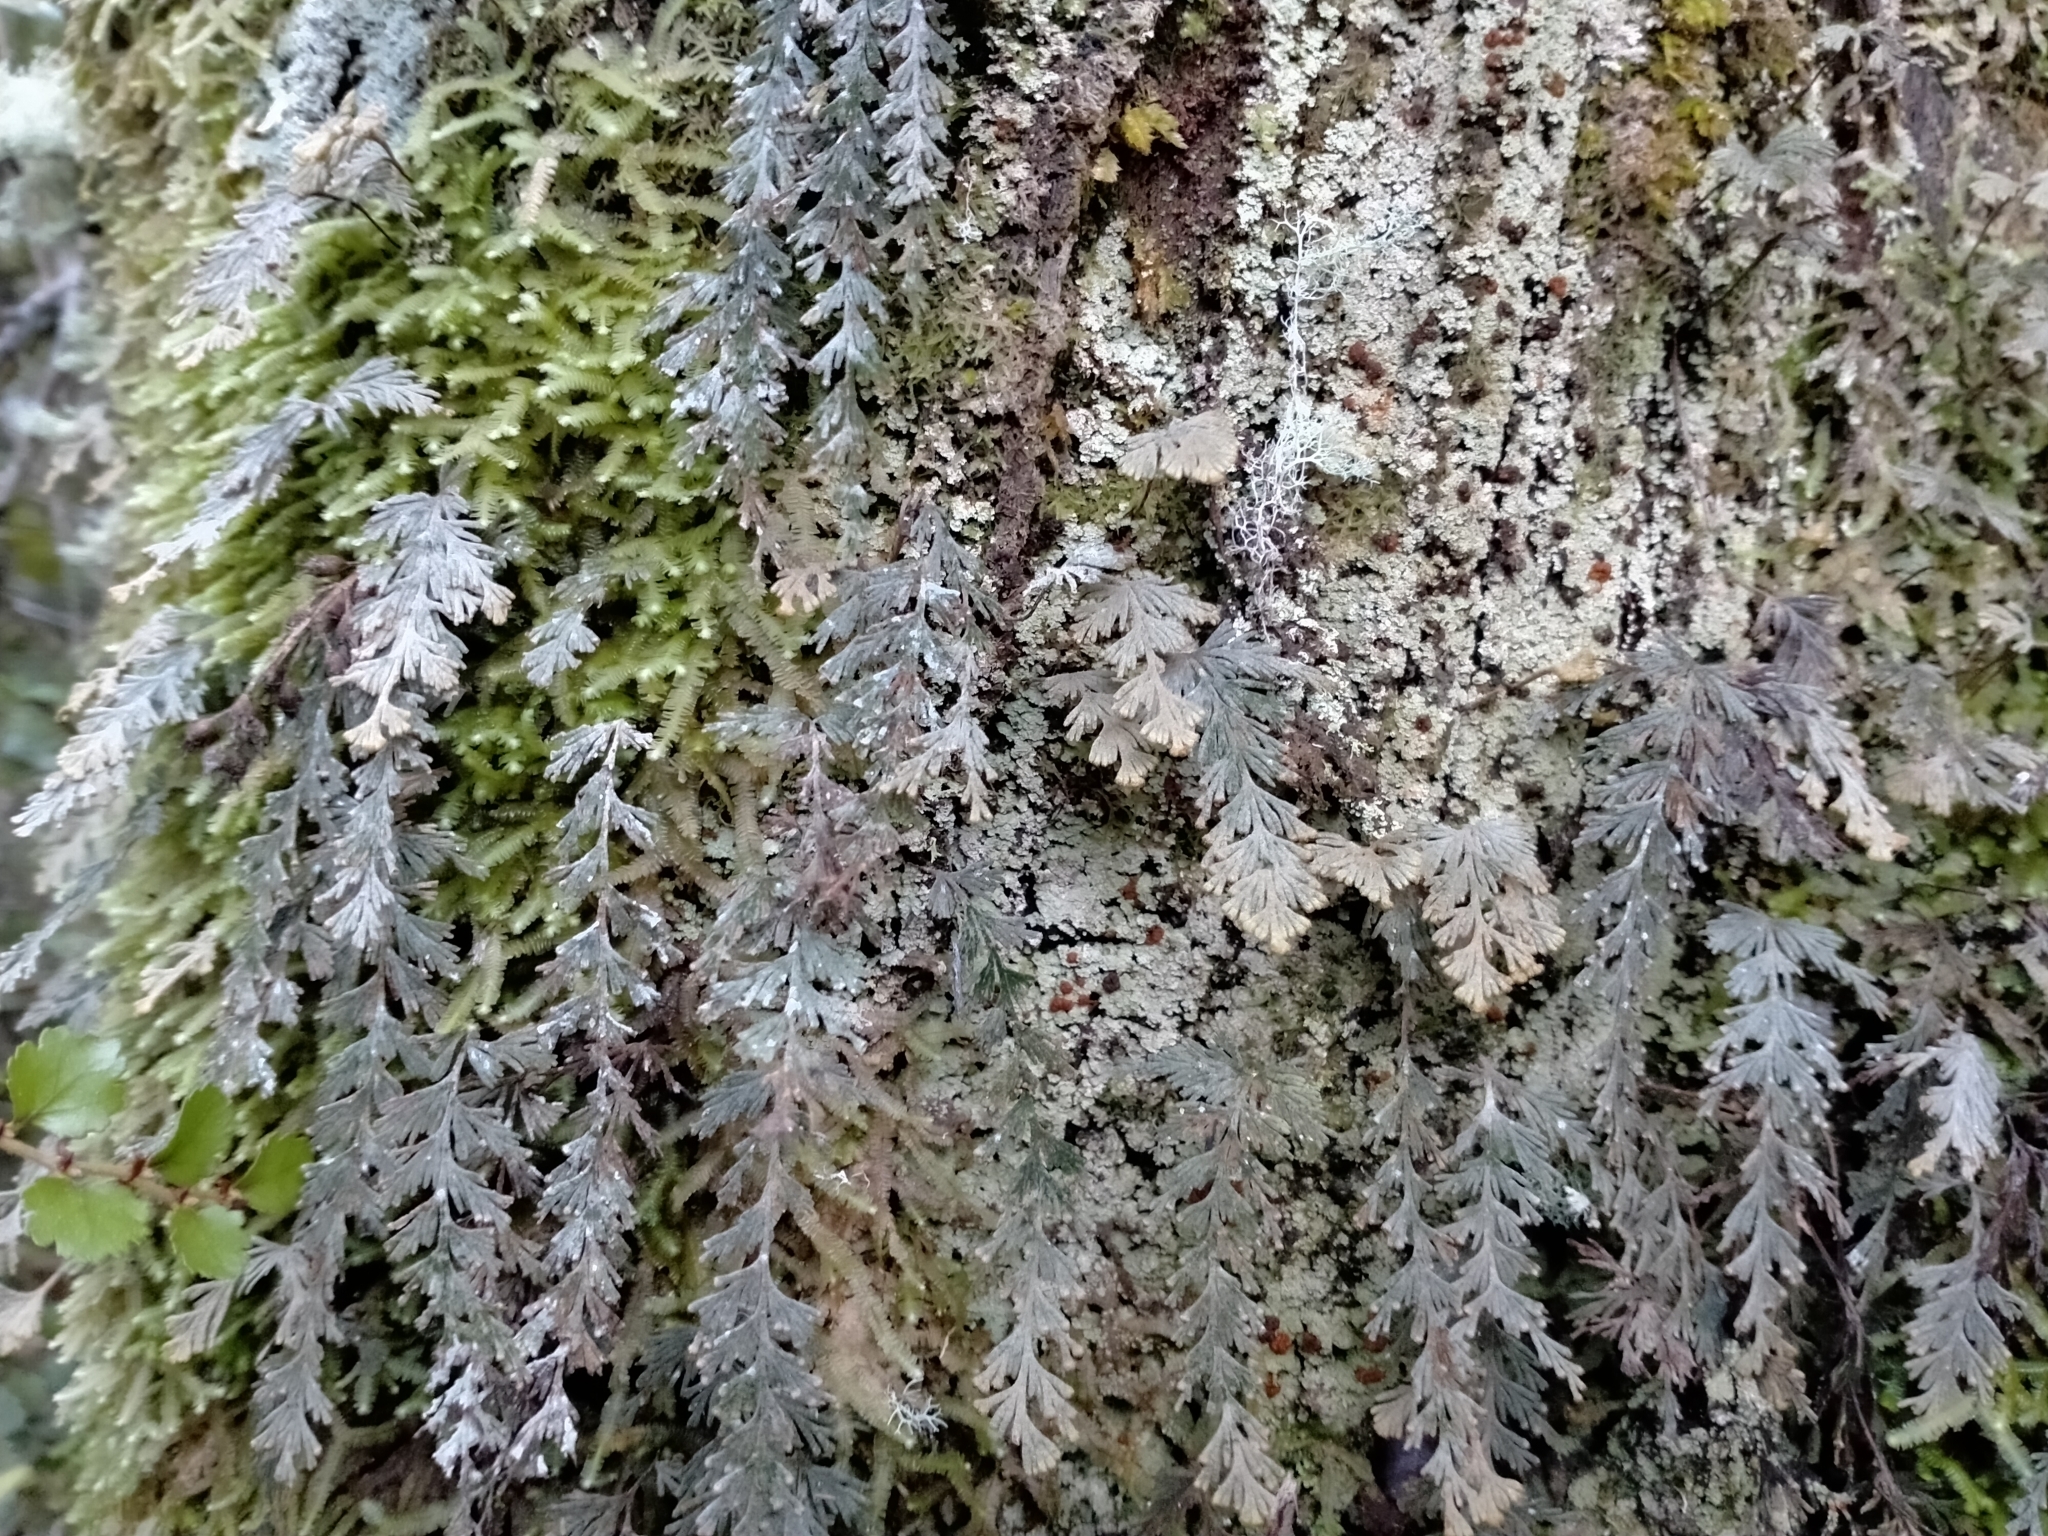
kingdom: Plantae
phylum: Tracheophyta
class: Polypodiopsida
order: Hymenophyllales
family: Hymenophyllaceae
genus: Hymenophyllum
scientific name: Hymenophyllum malingii
